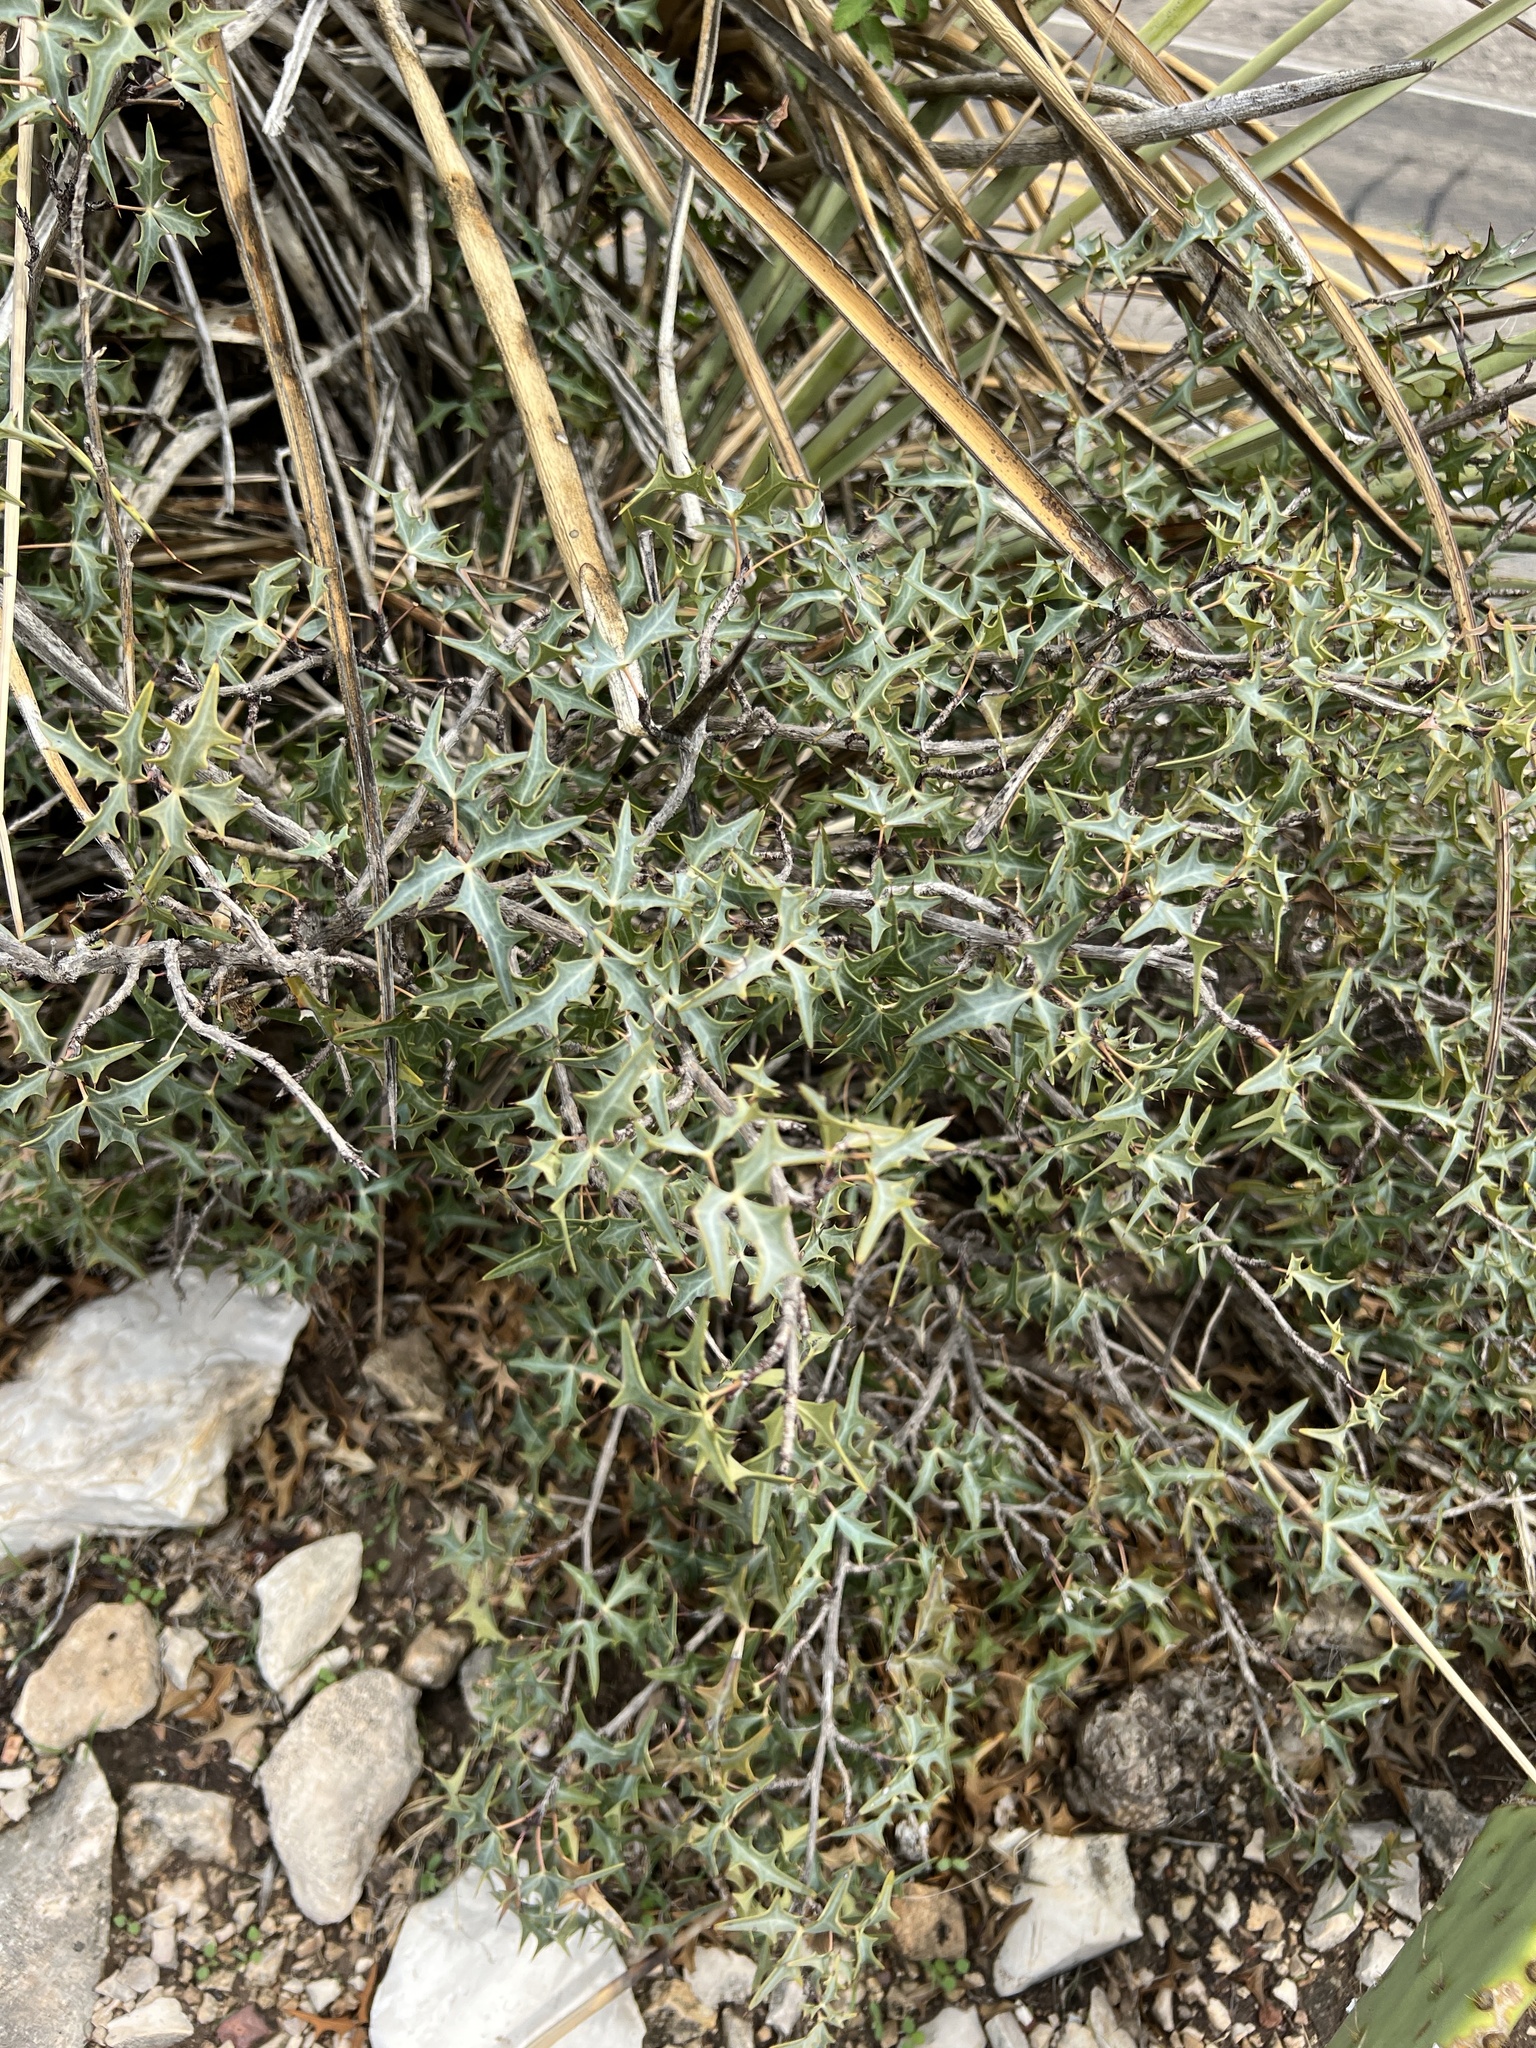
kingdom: Plantae
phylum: Tracheophyta
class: Magnoliopsida
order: Ranunculales
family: Berberidaceae
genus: Alloberberis
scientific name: Alloberberis trifoliolata
